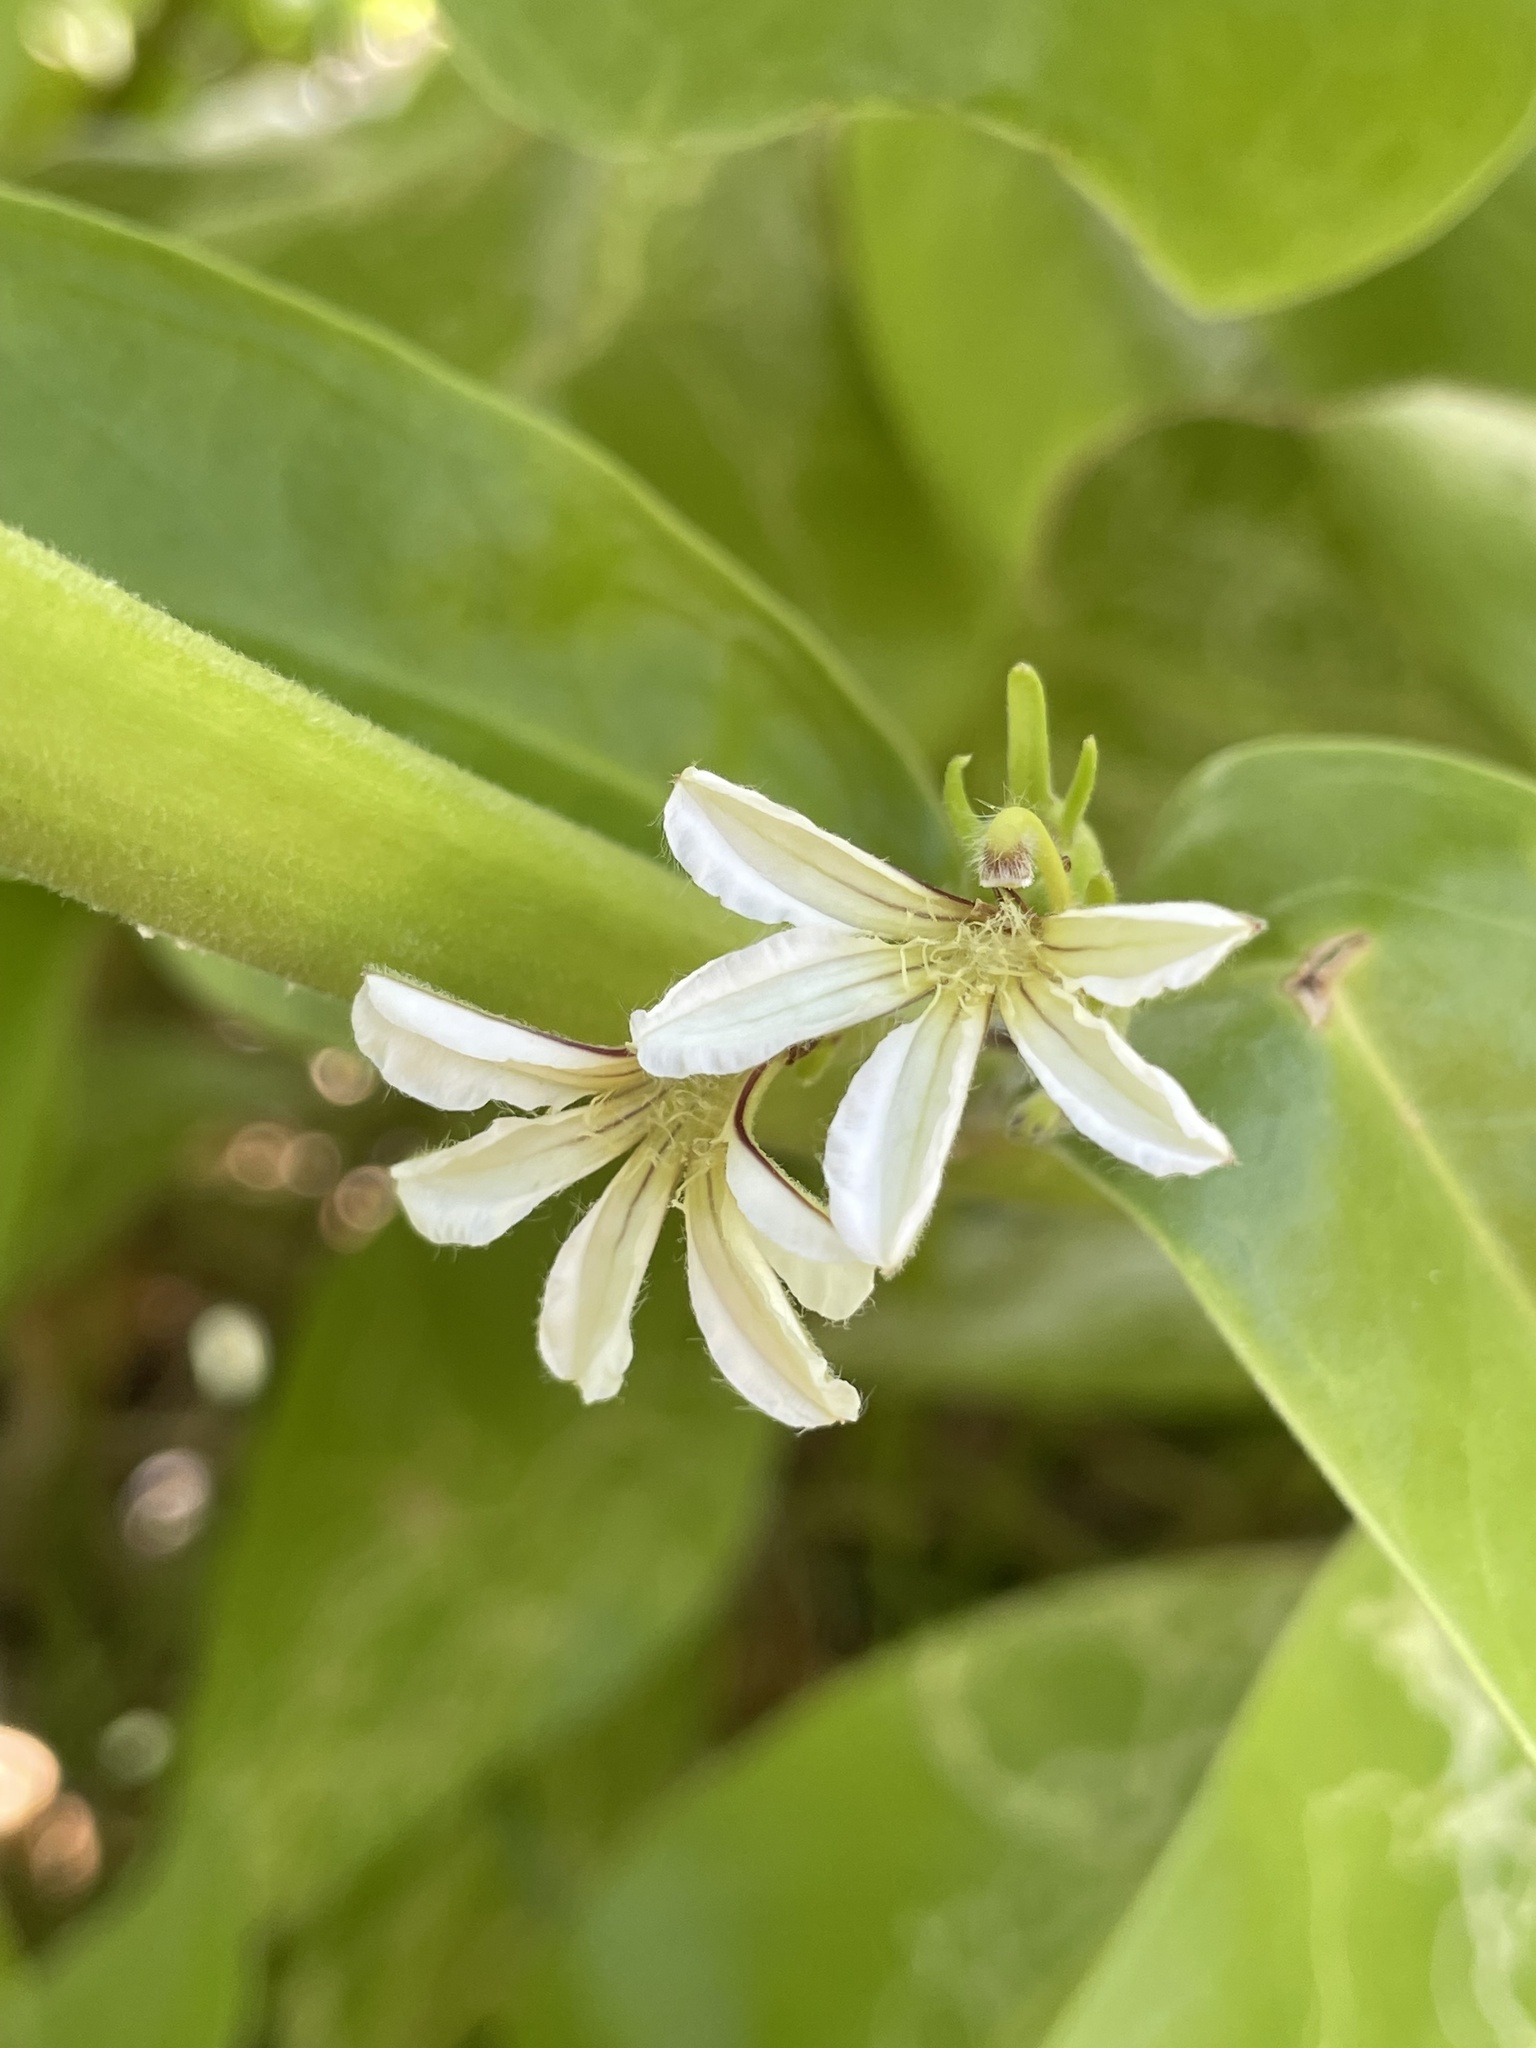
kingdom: Plantae
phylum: Tracheophyta
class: Magnoliopsida
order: Asterales
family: Goodeniaceae
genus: Scaevola
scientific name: Scaevola taccada
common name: Sea lettucetree
